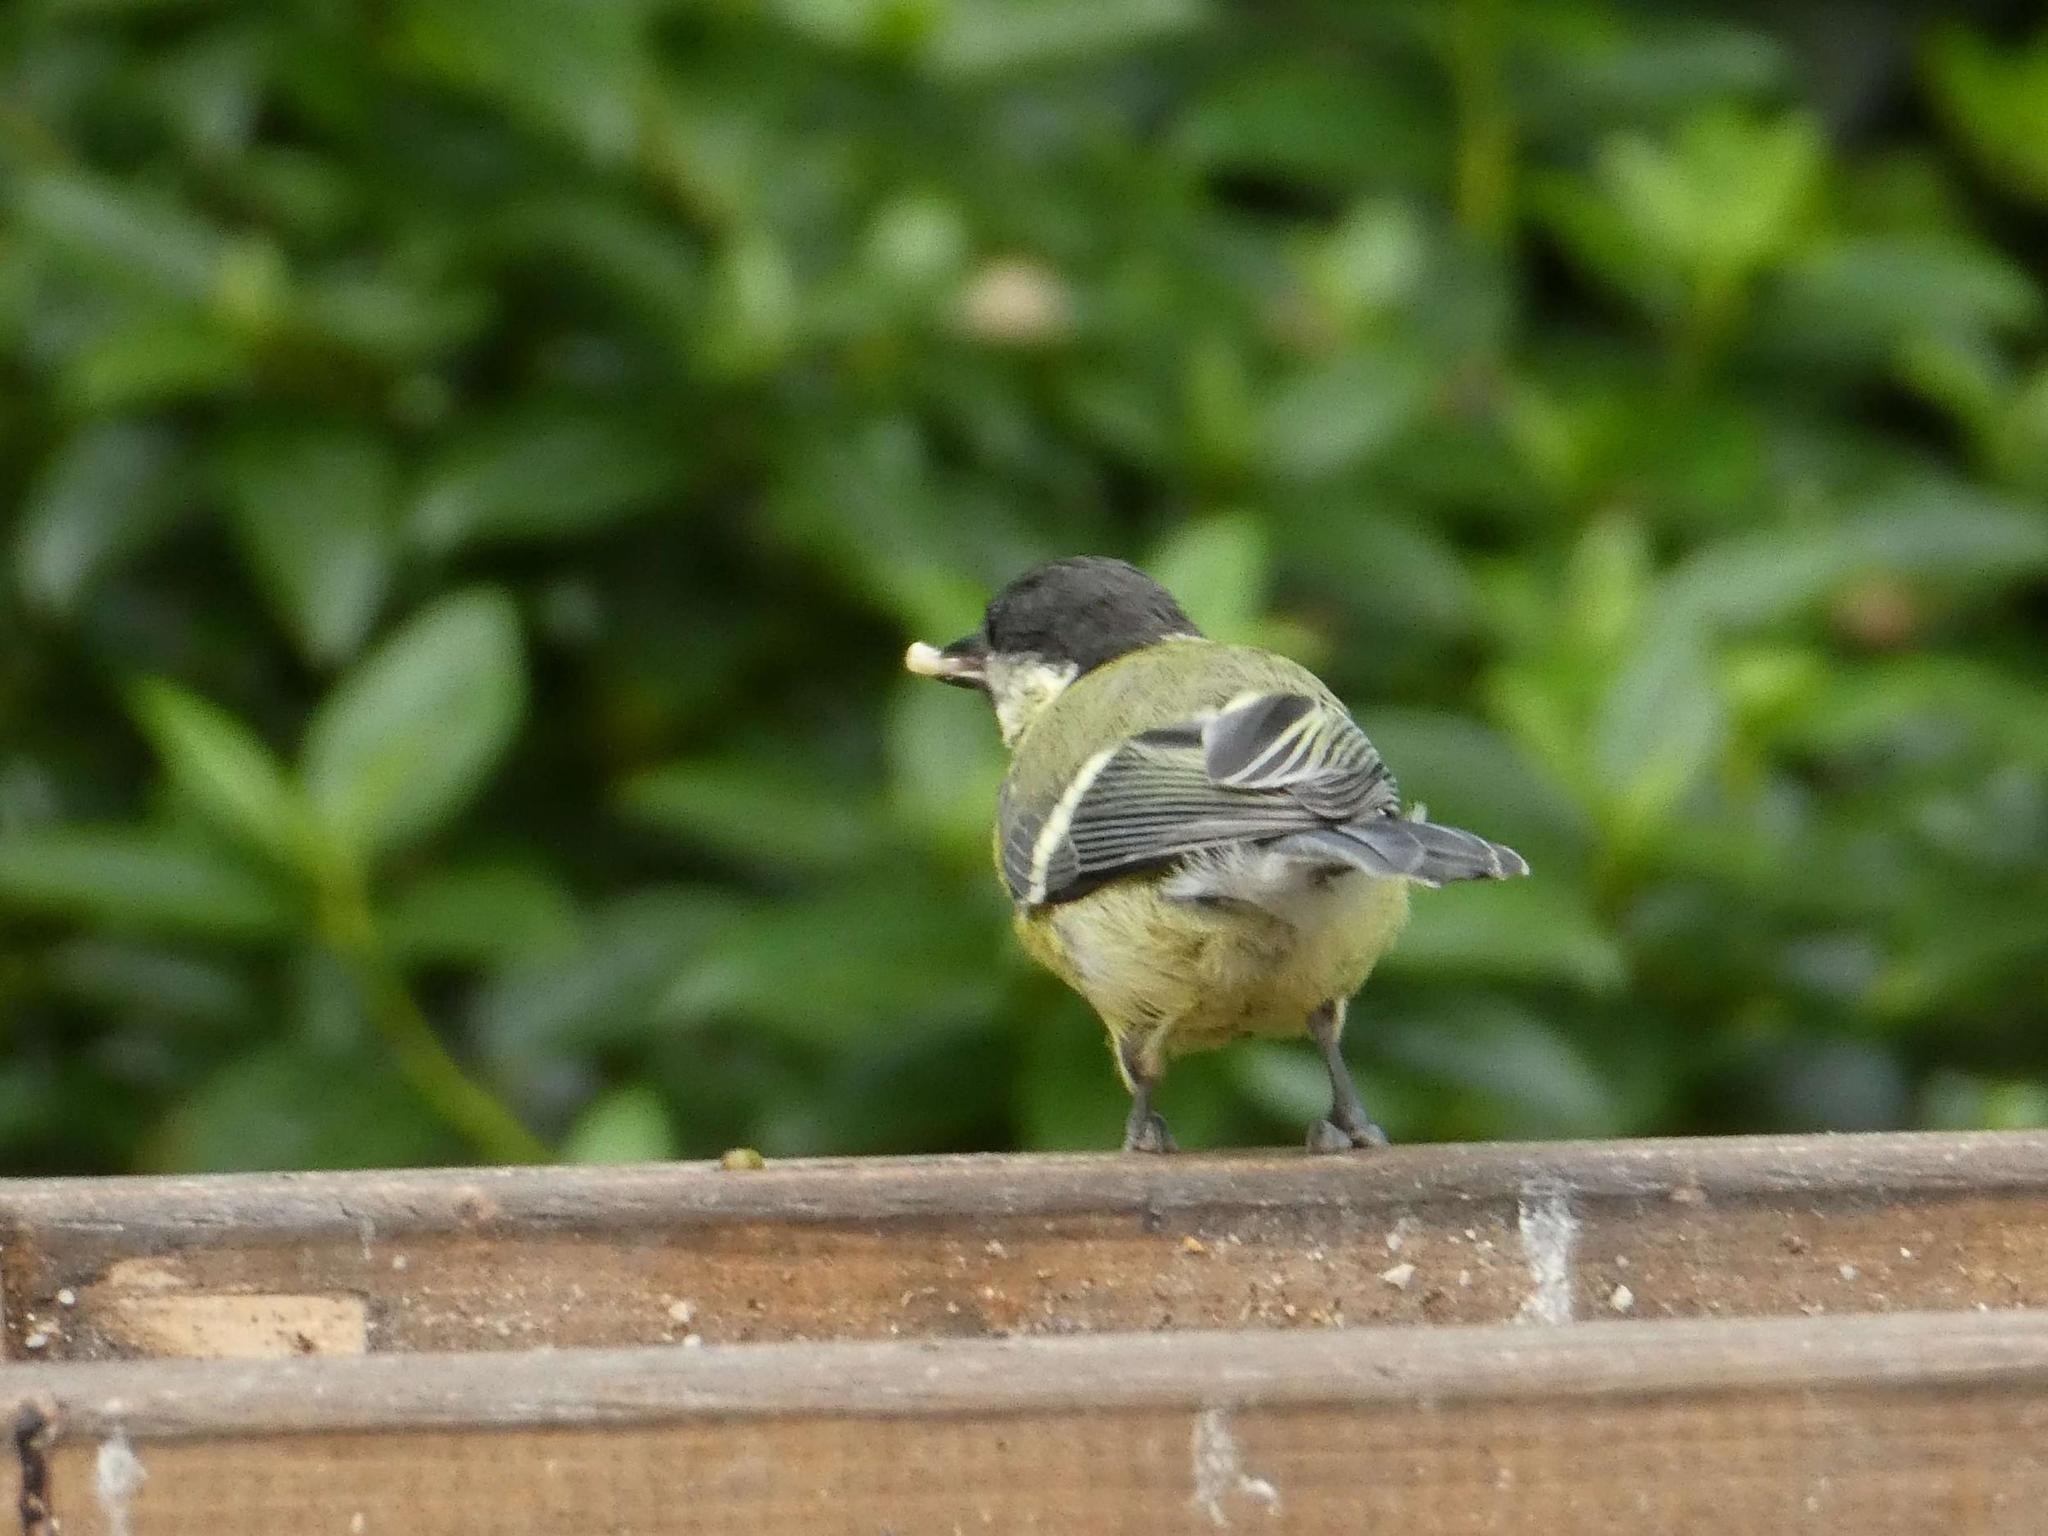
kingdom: Animalia
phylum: Chordata
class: Aves
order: Passeriformes
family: Paridae
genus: Parus
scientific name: Parus major
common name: Great tit
